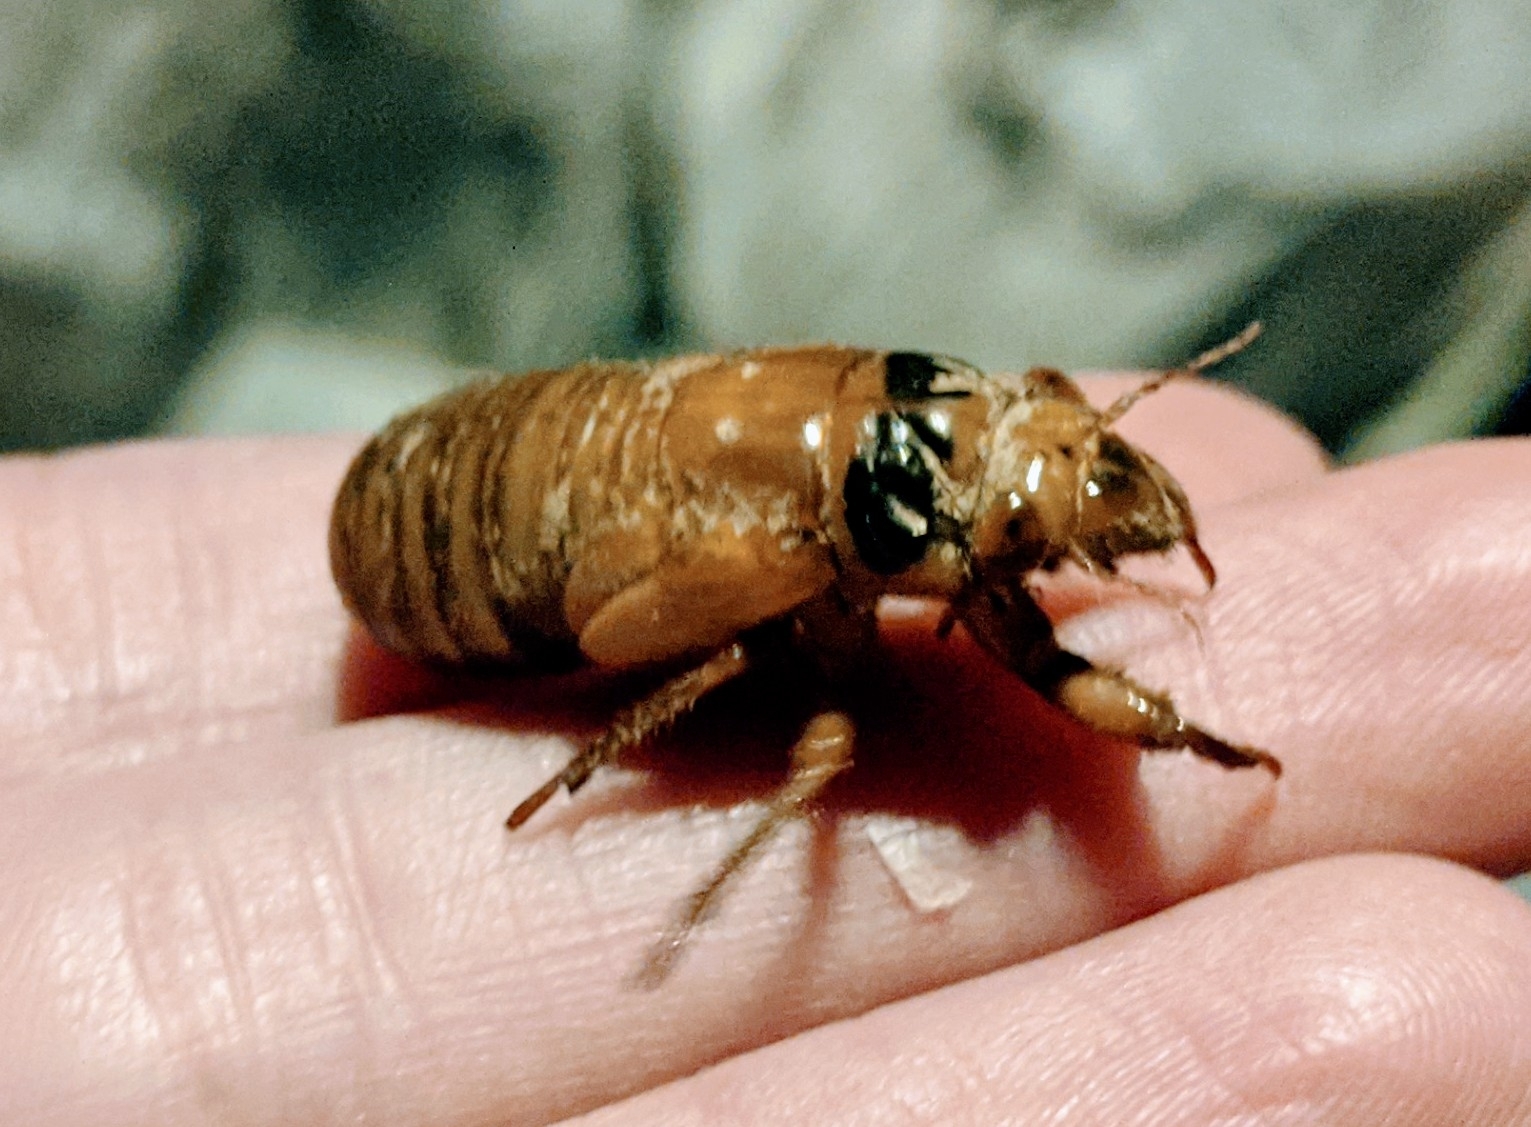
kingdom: Animalia
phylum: Arthropoda
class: Insecta
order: Hemiptera
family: Cicadidae
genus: Magicicada
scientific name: Magicicada
